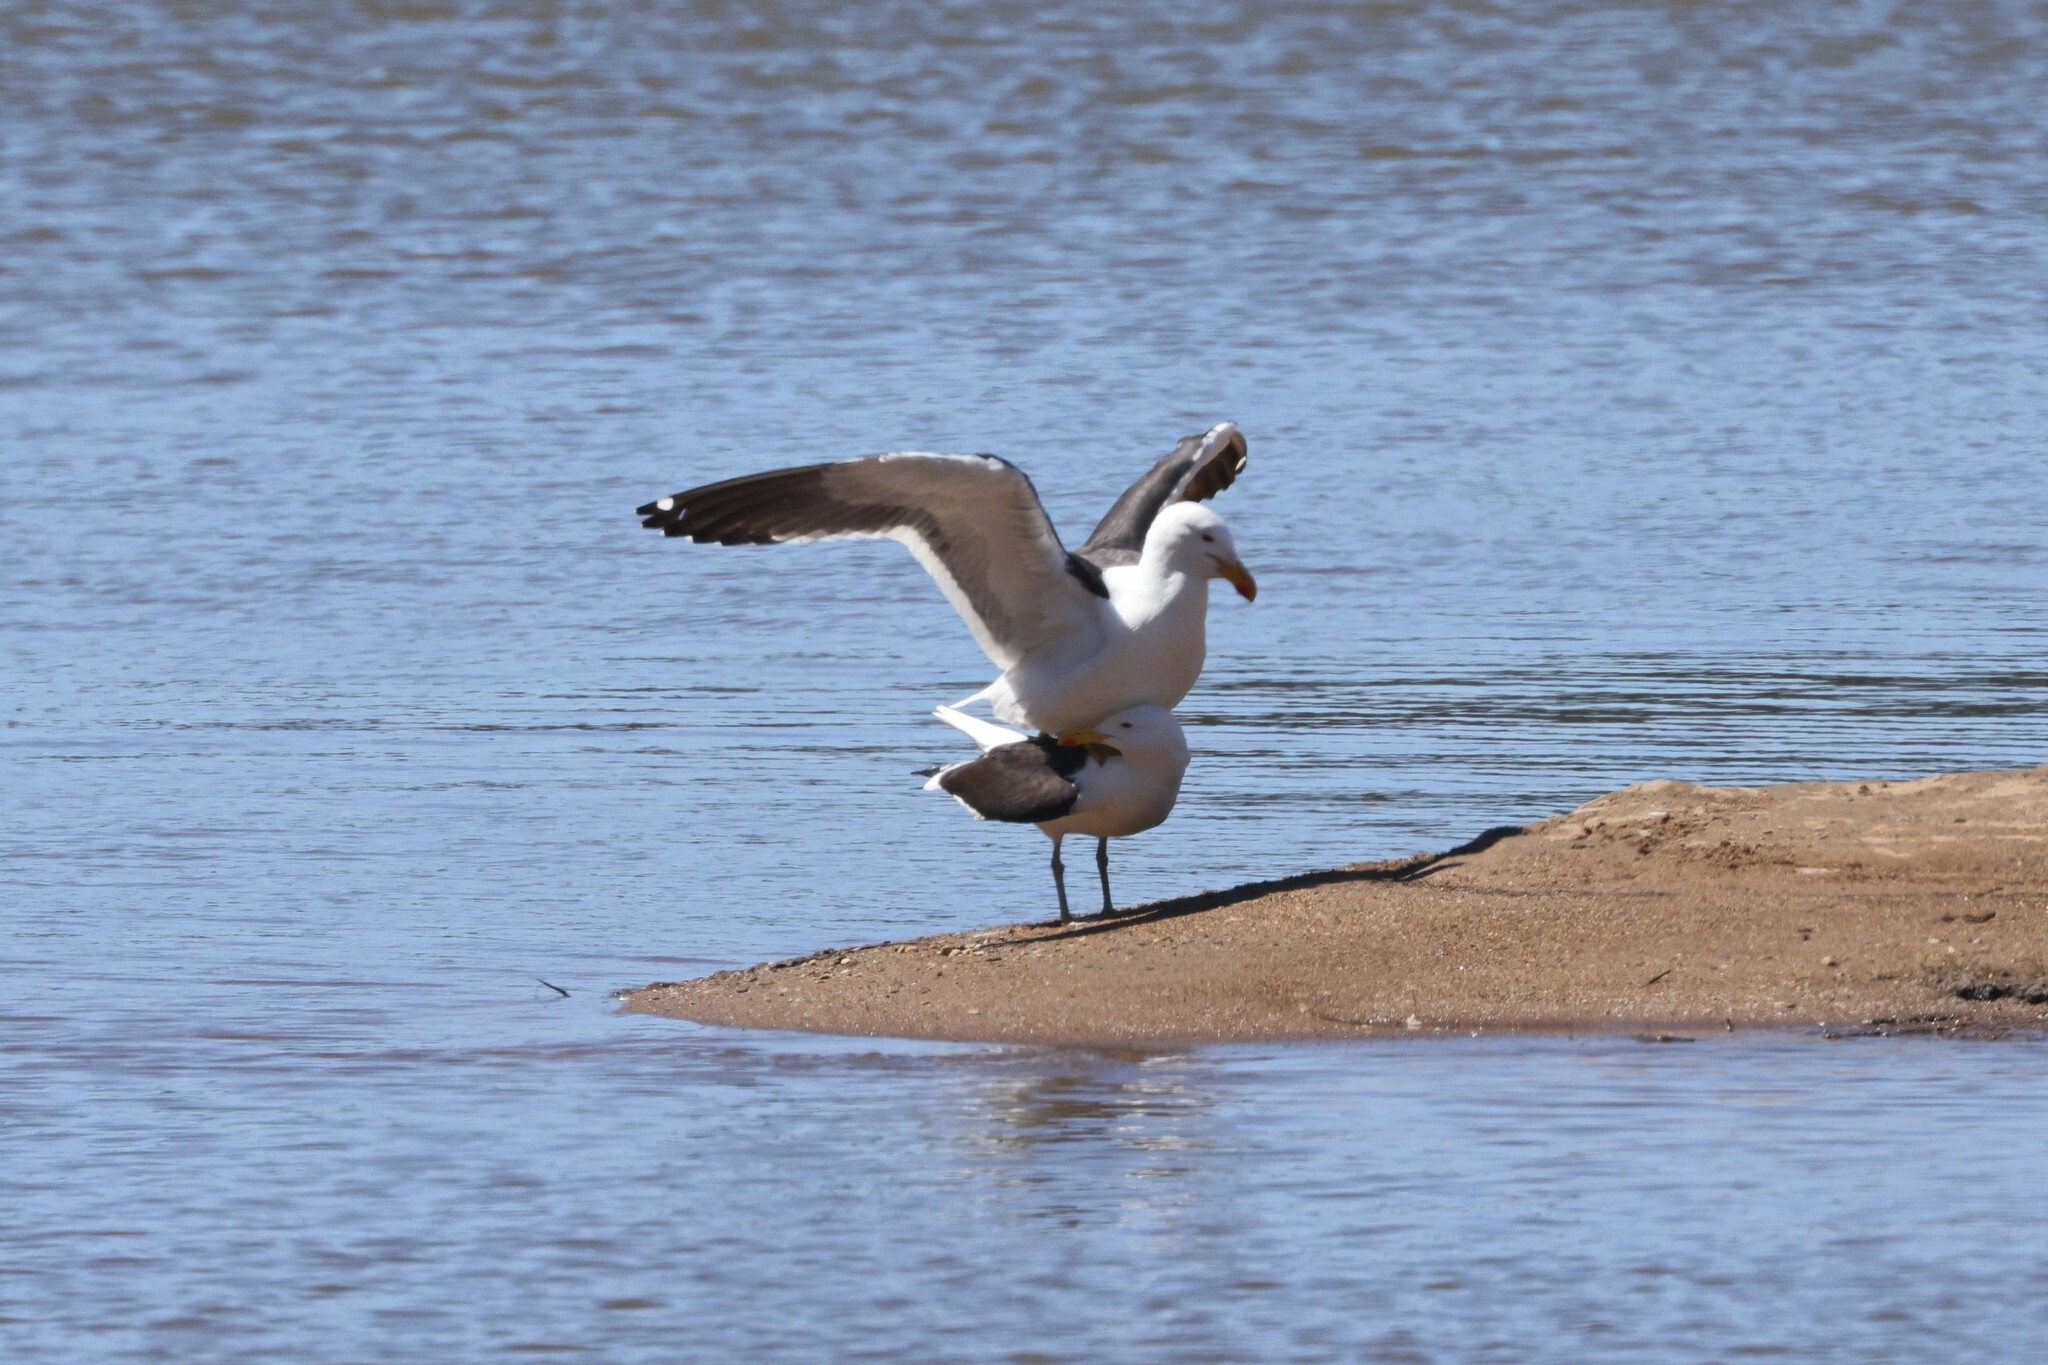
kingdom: Animalia
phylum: Chordata
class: Aves
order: Charadriiformes
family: Laridae
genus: Larus
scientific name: Larus dominicanus
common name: Kelp gull
